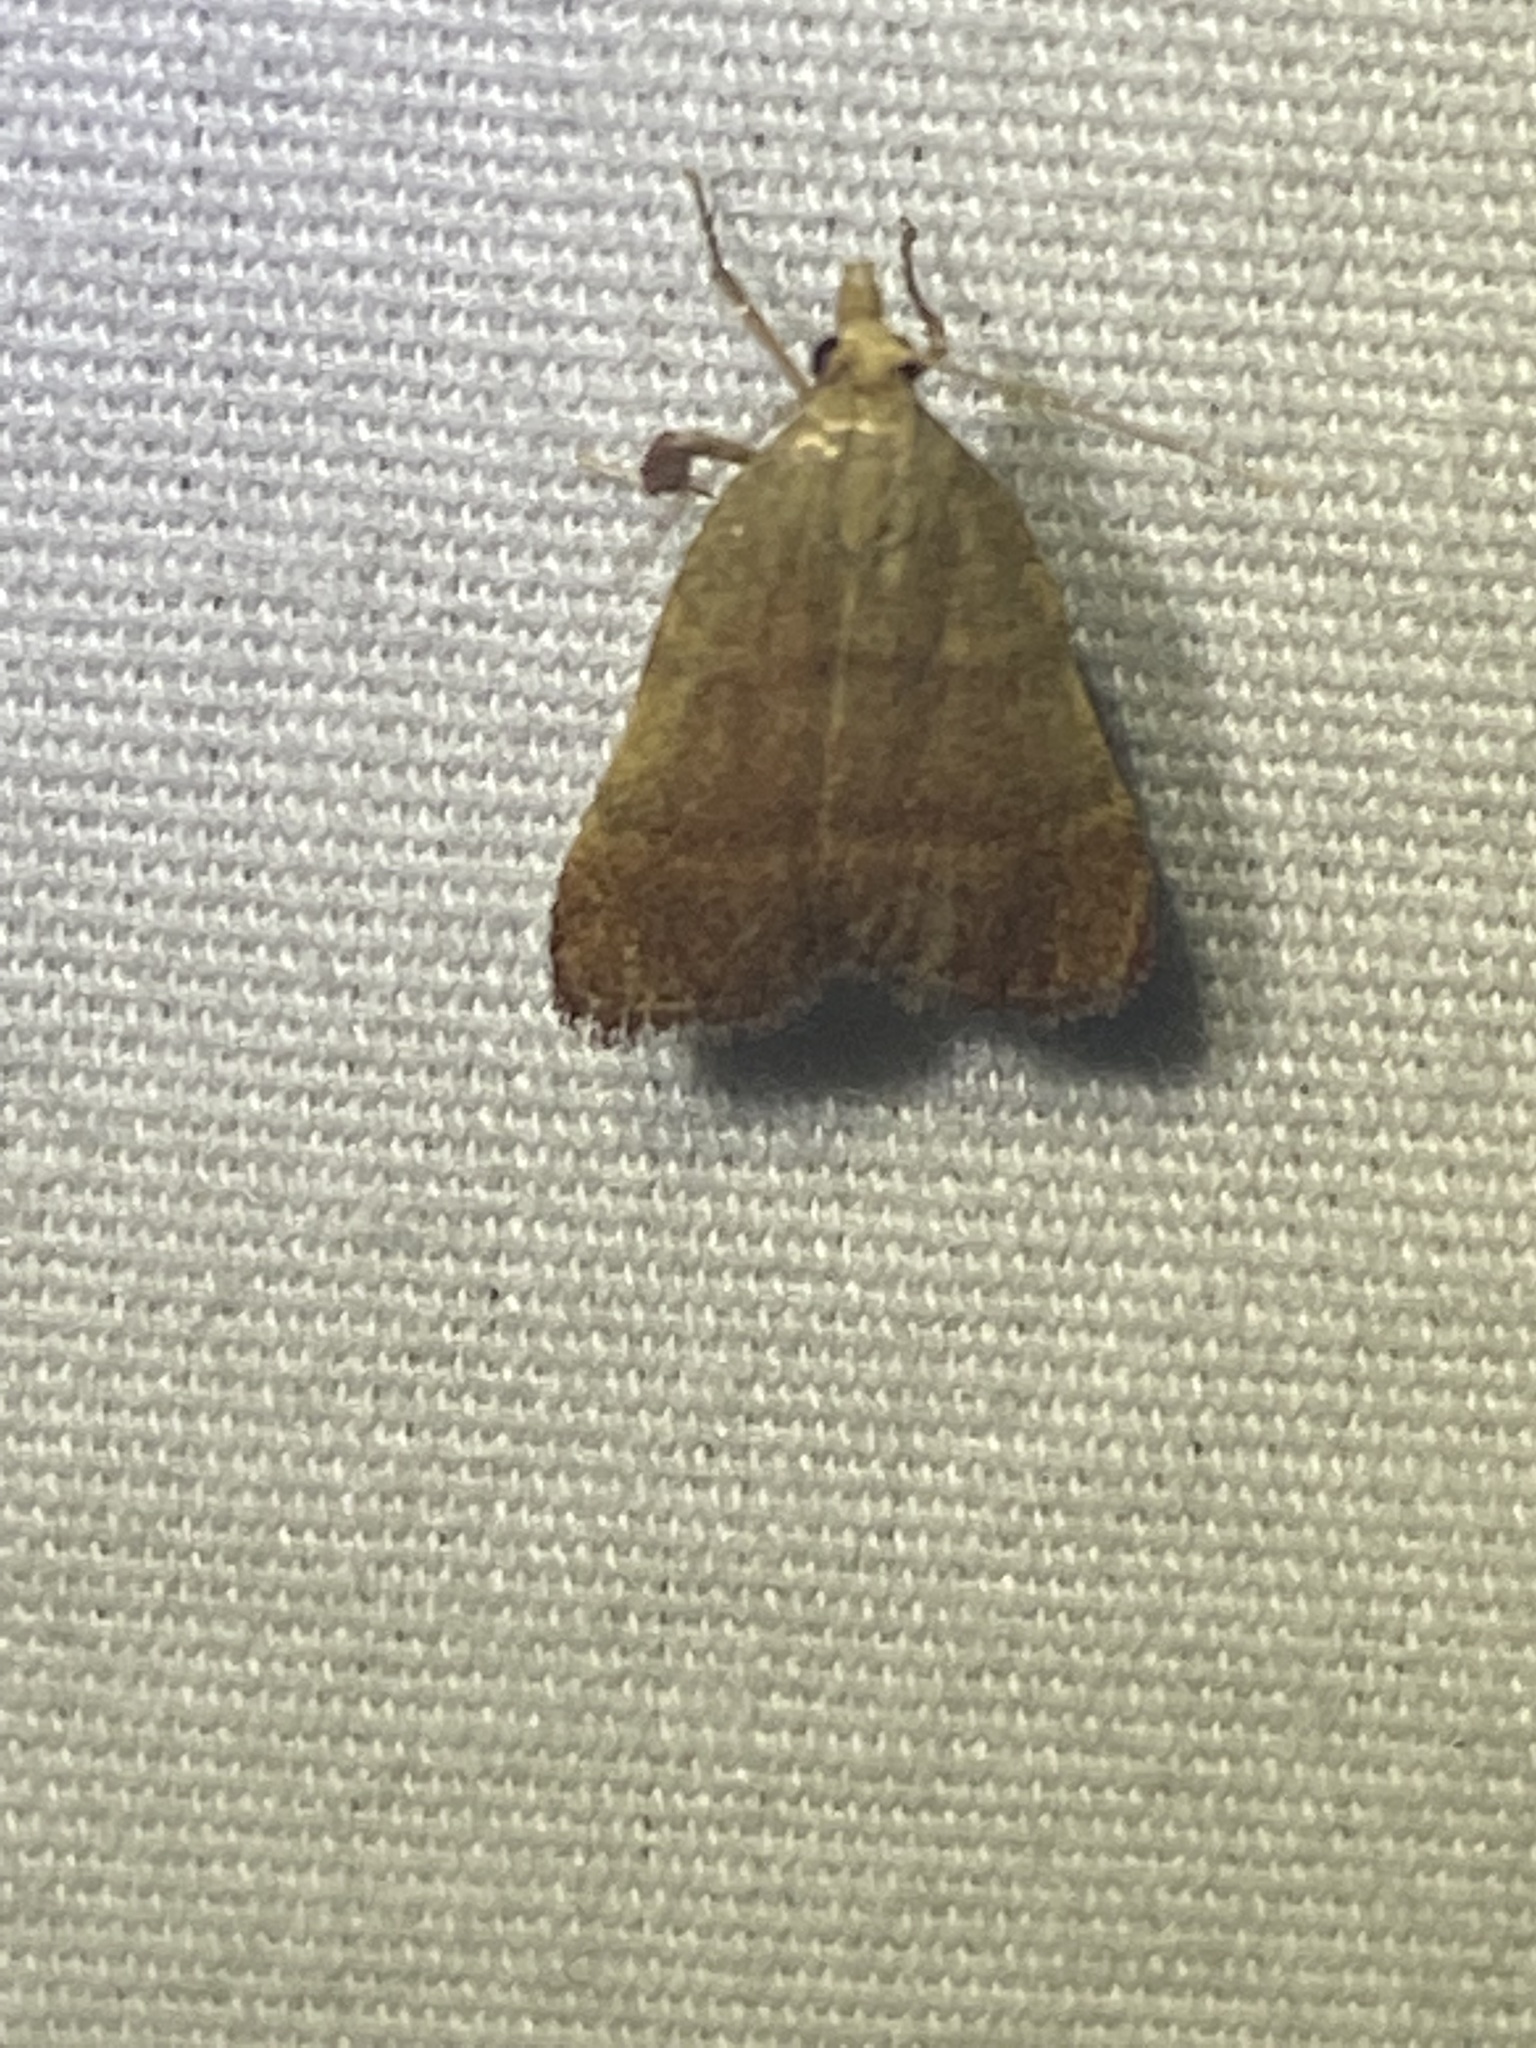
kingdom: Animalia
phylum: Arthropoda
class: Insecta
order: Lepidoptera
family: Pyralidae
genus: Condylolomia
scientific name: Condylolomia participialis
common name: Drab condylolomia moth
